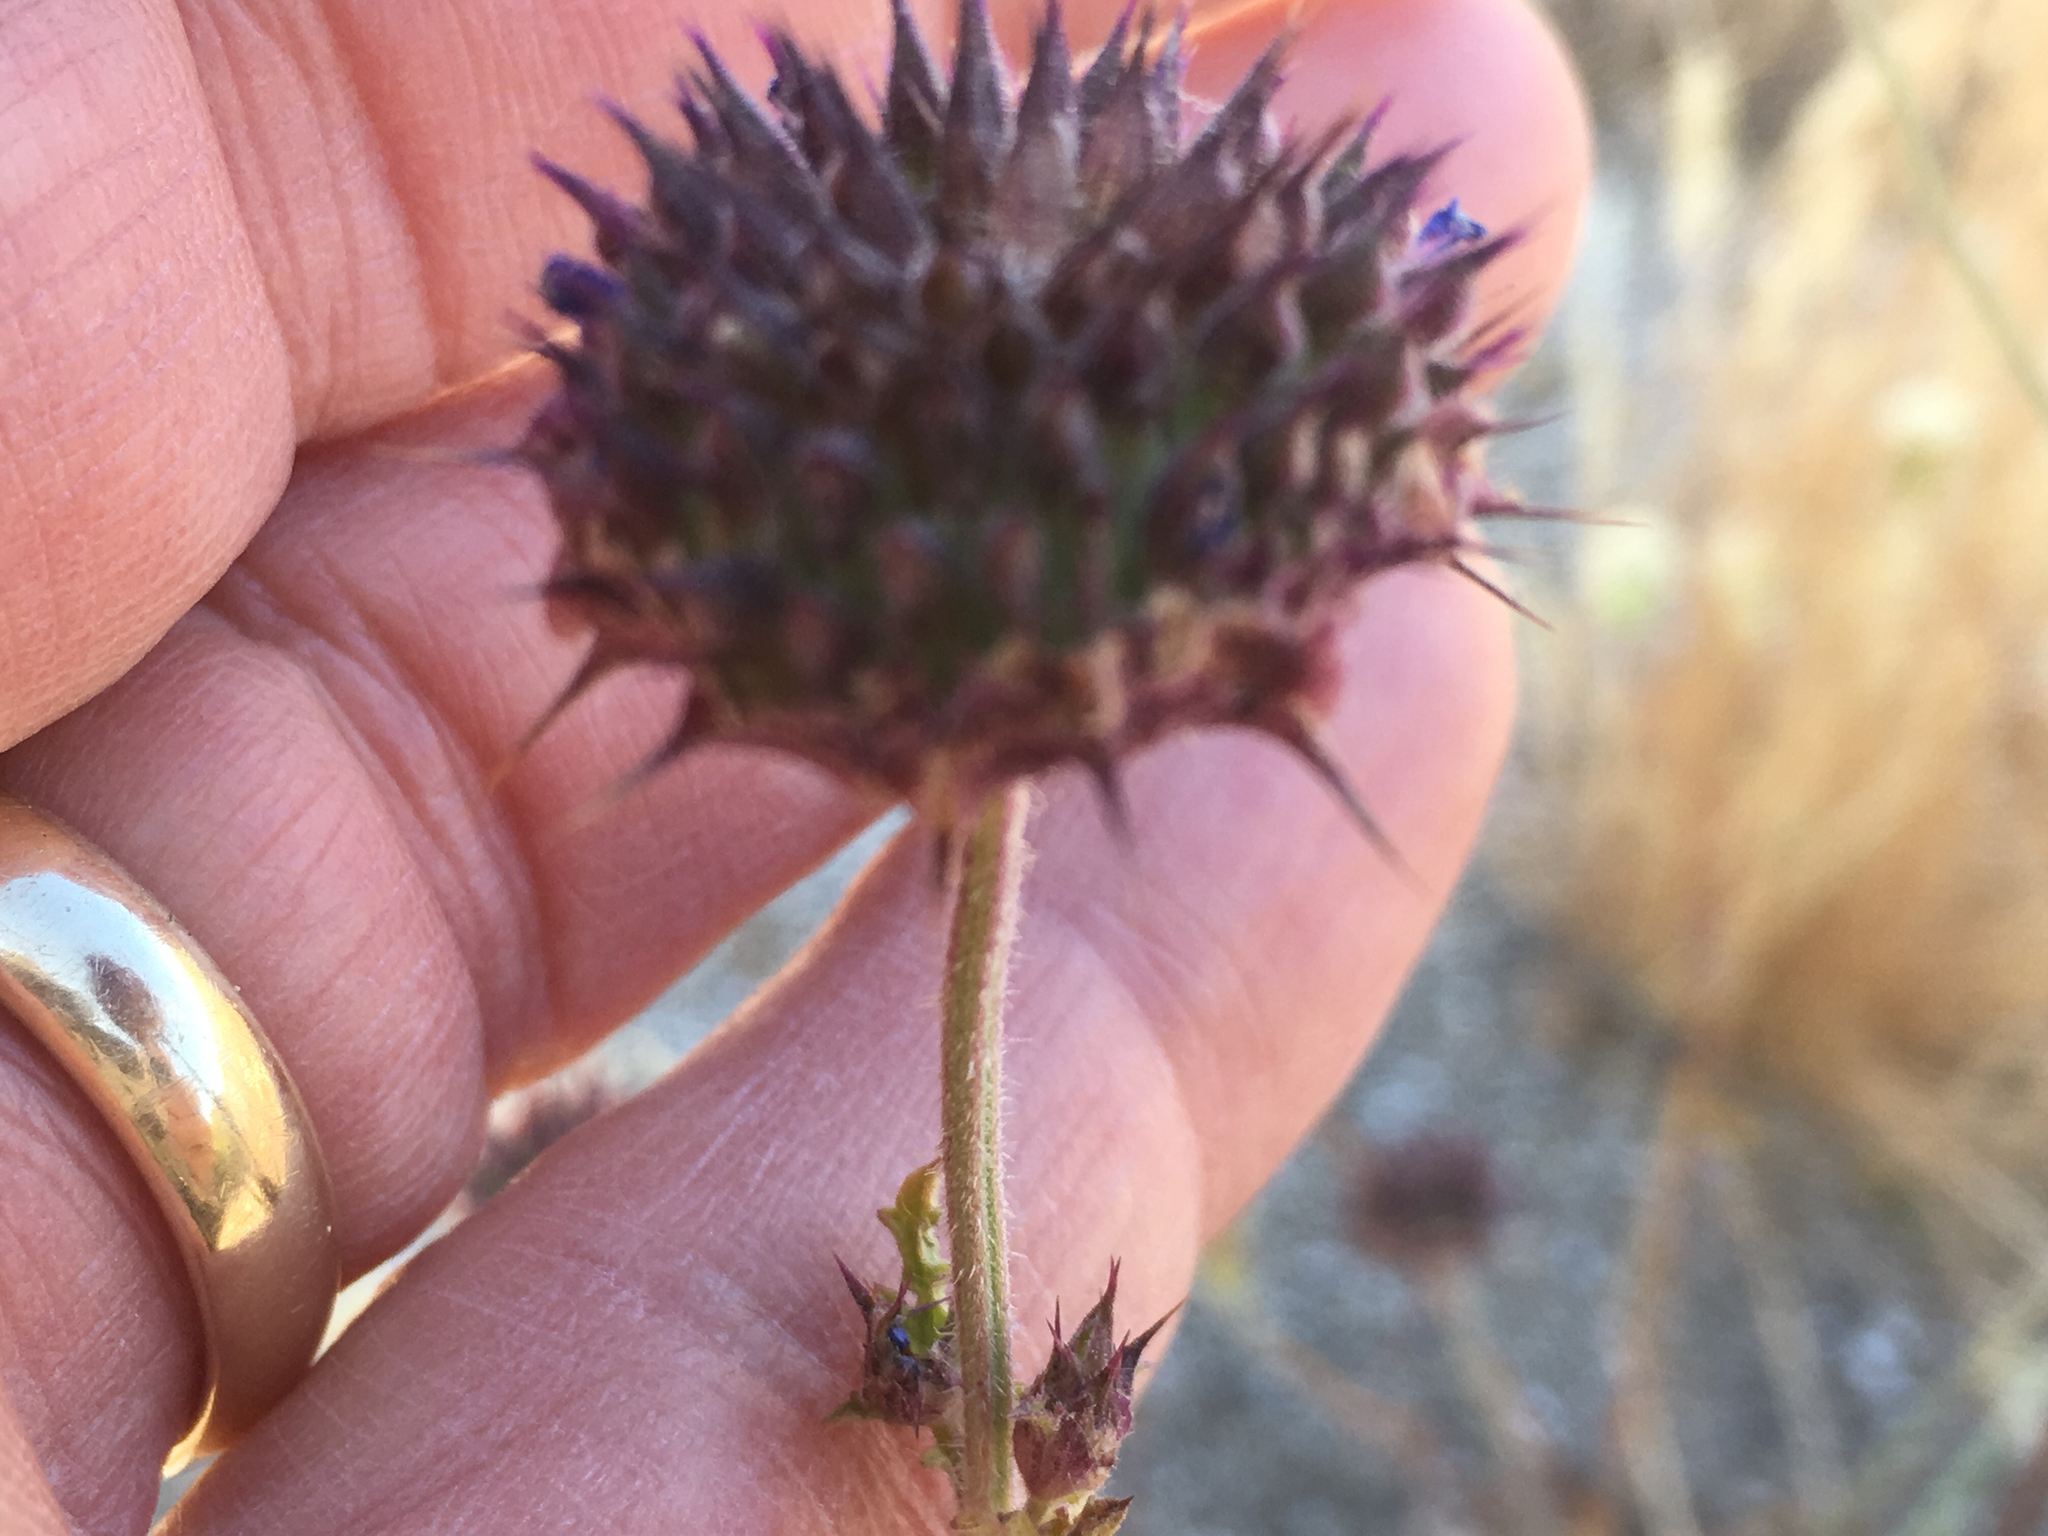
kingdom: Plantae
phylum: Tracheophyta
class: Magnoliopsida
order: Lamiales
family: Lamiaceae
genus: Salvia
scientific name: Salvia columbariae
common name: Chia
